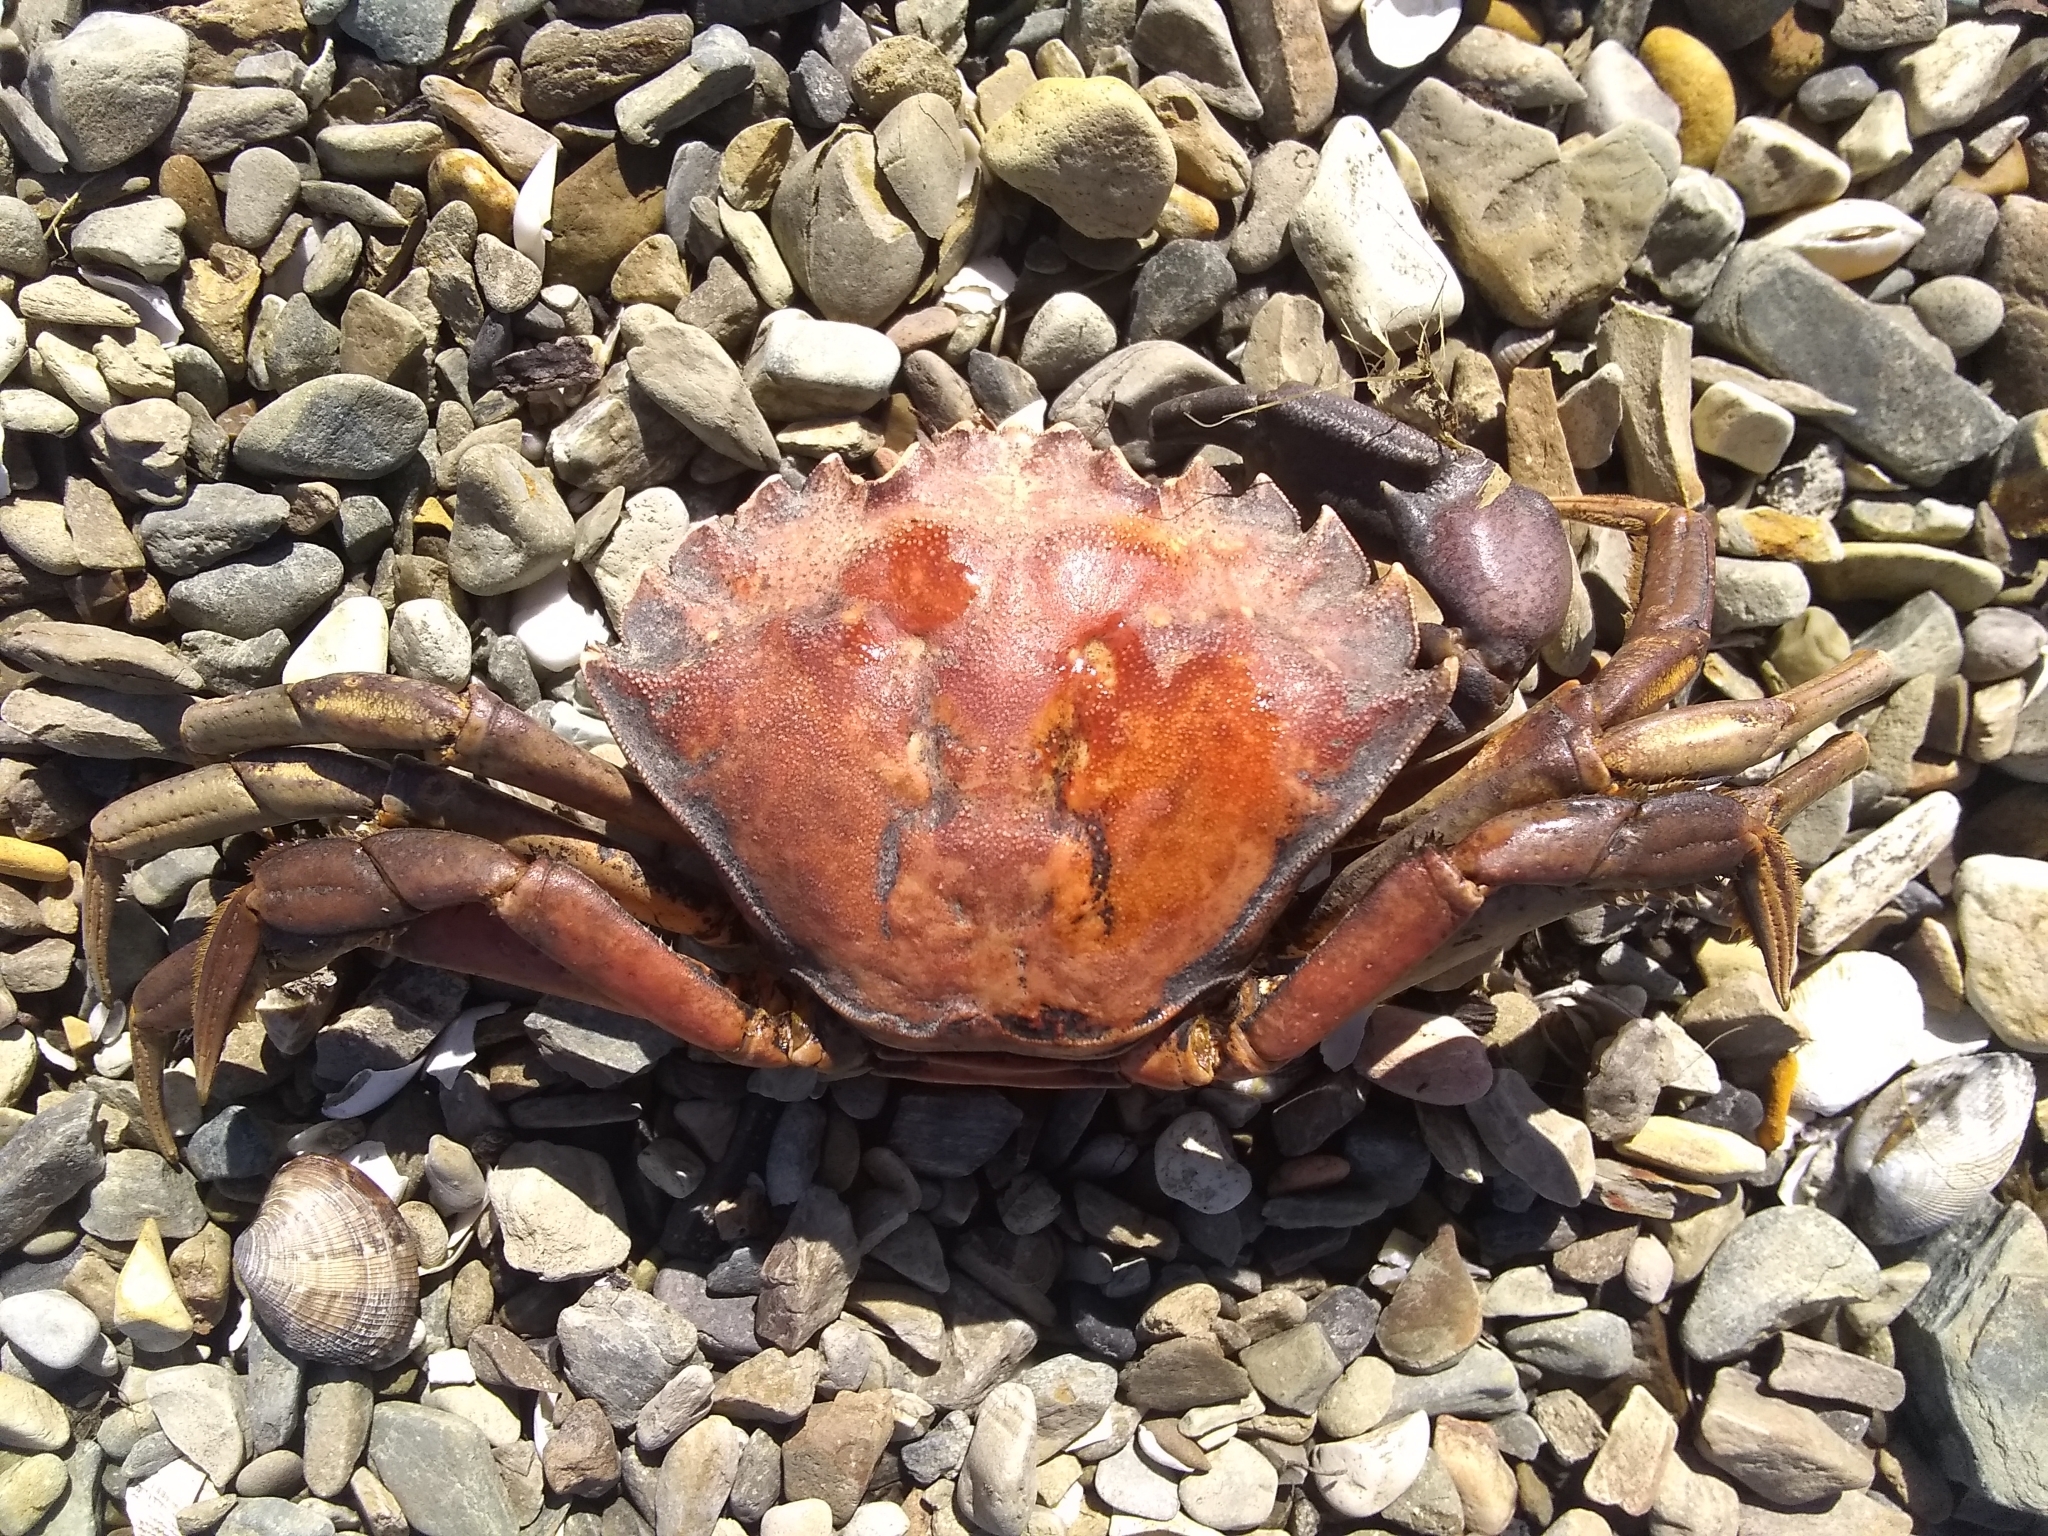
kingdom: Animalia
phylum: Arthropoda
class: Malacostraca
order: Decapoda
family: Carcinidae
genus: Carcinus
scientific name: Carcinus maenas
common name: European green crab
